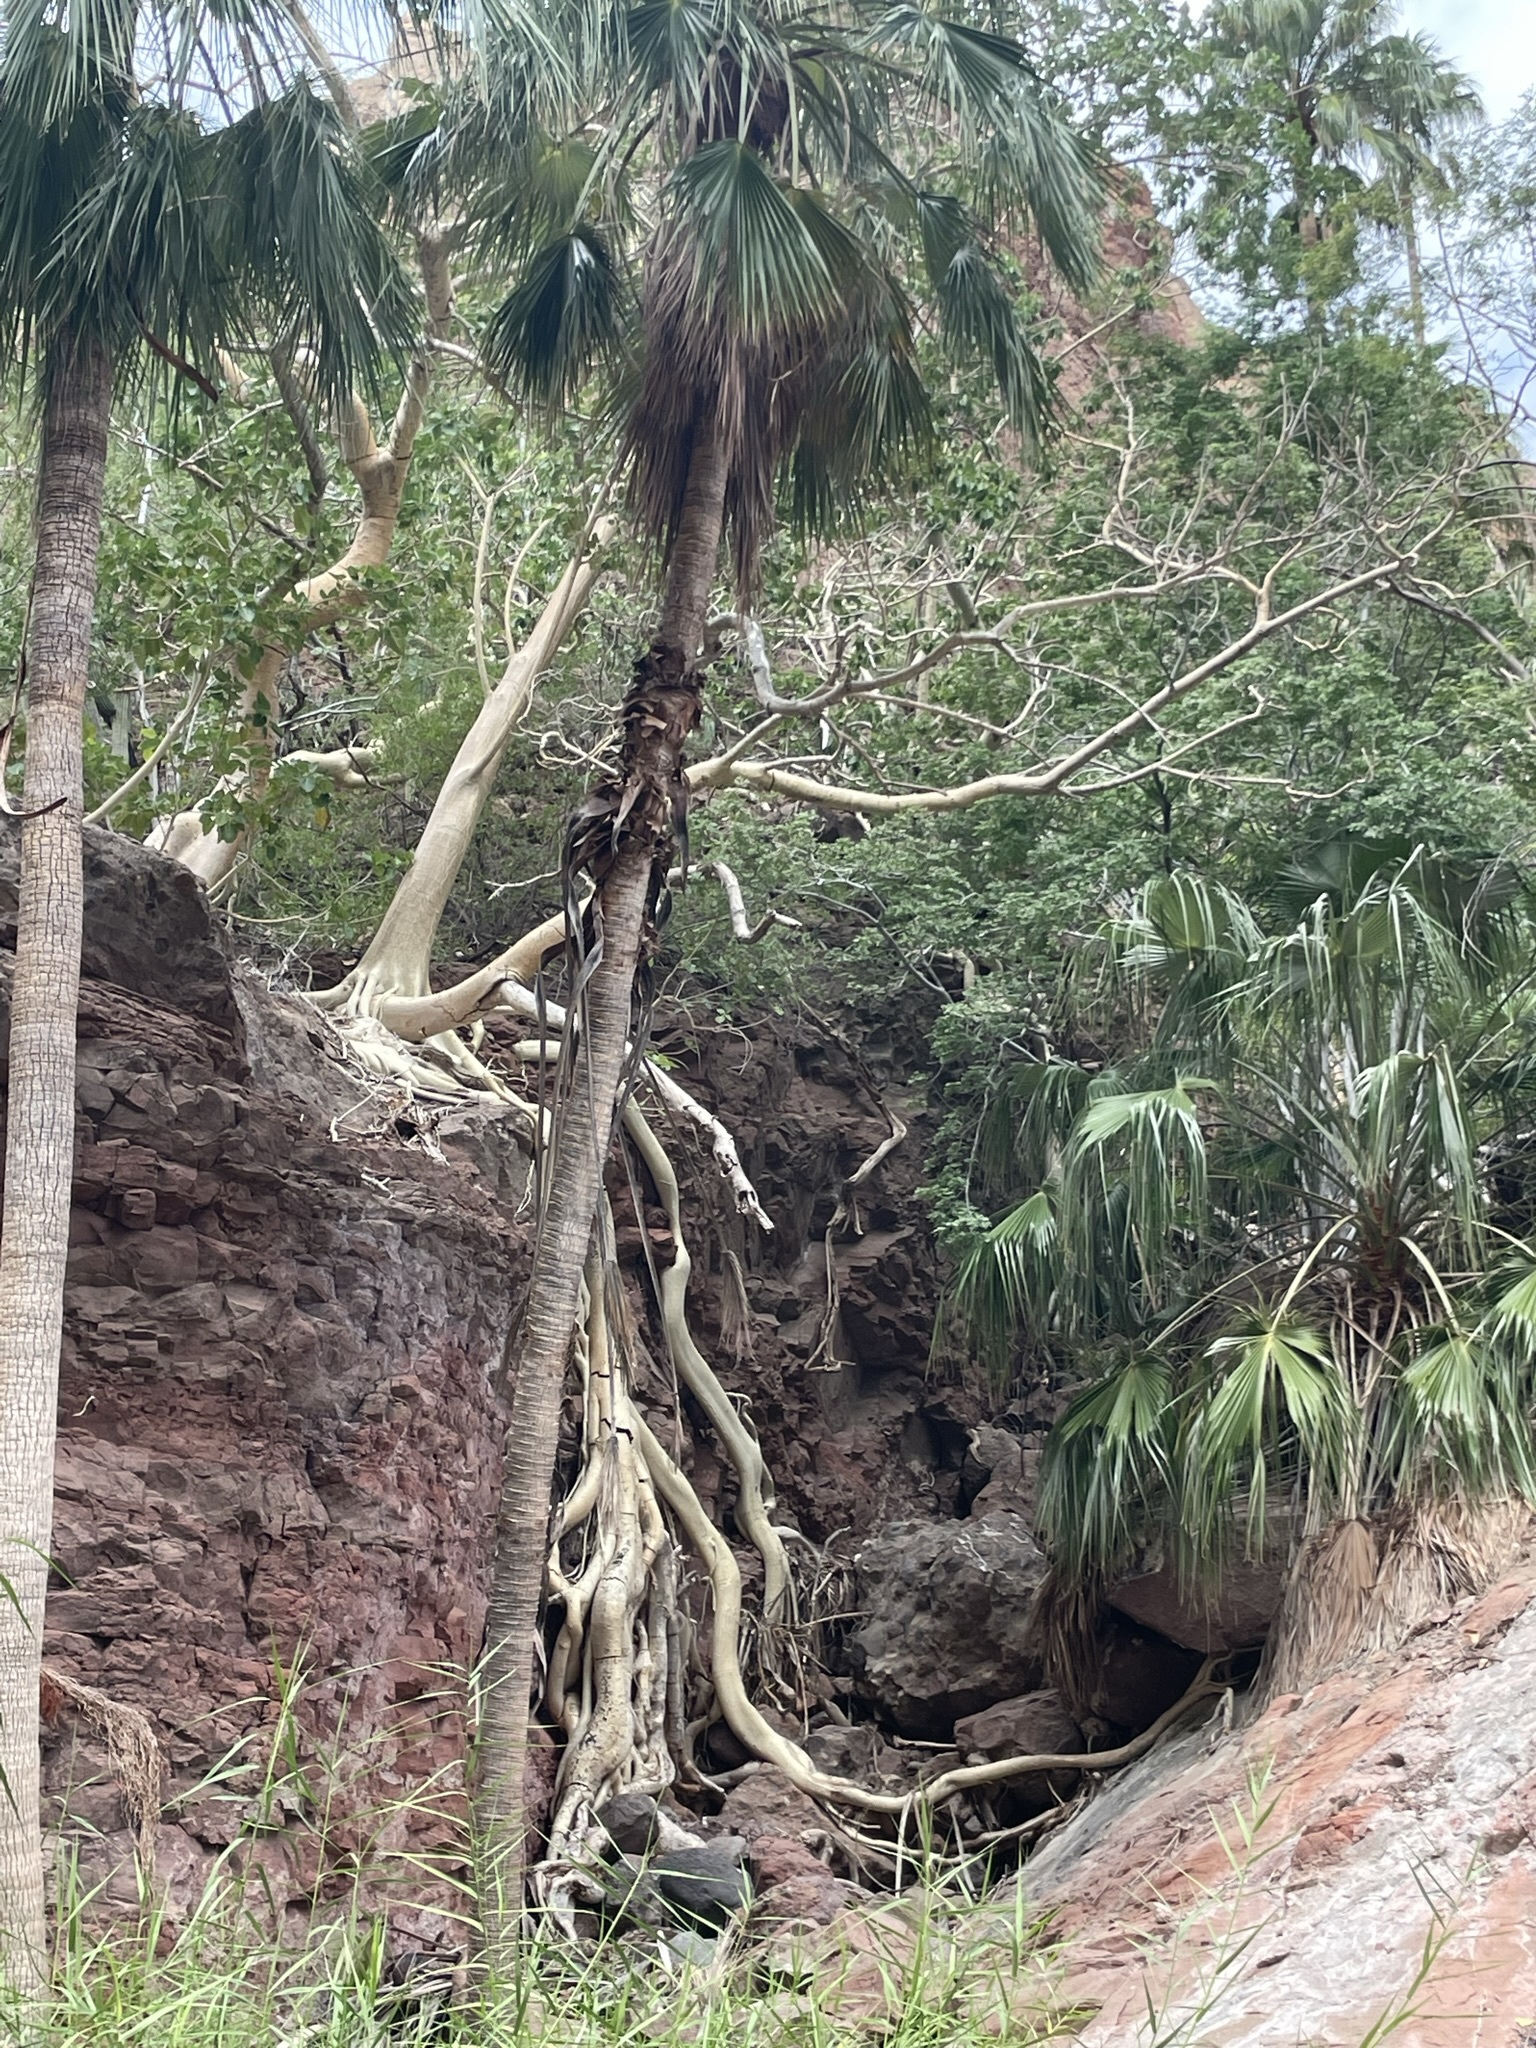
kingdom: Plantae
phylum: Tracheophyta
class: Liliopsida
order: Arecales
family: Arecaceae
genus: Washingtonia
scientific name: Washingtonia robusta
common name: Mexican fan palm
